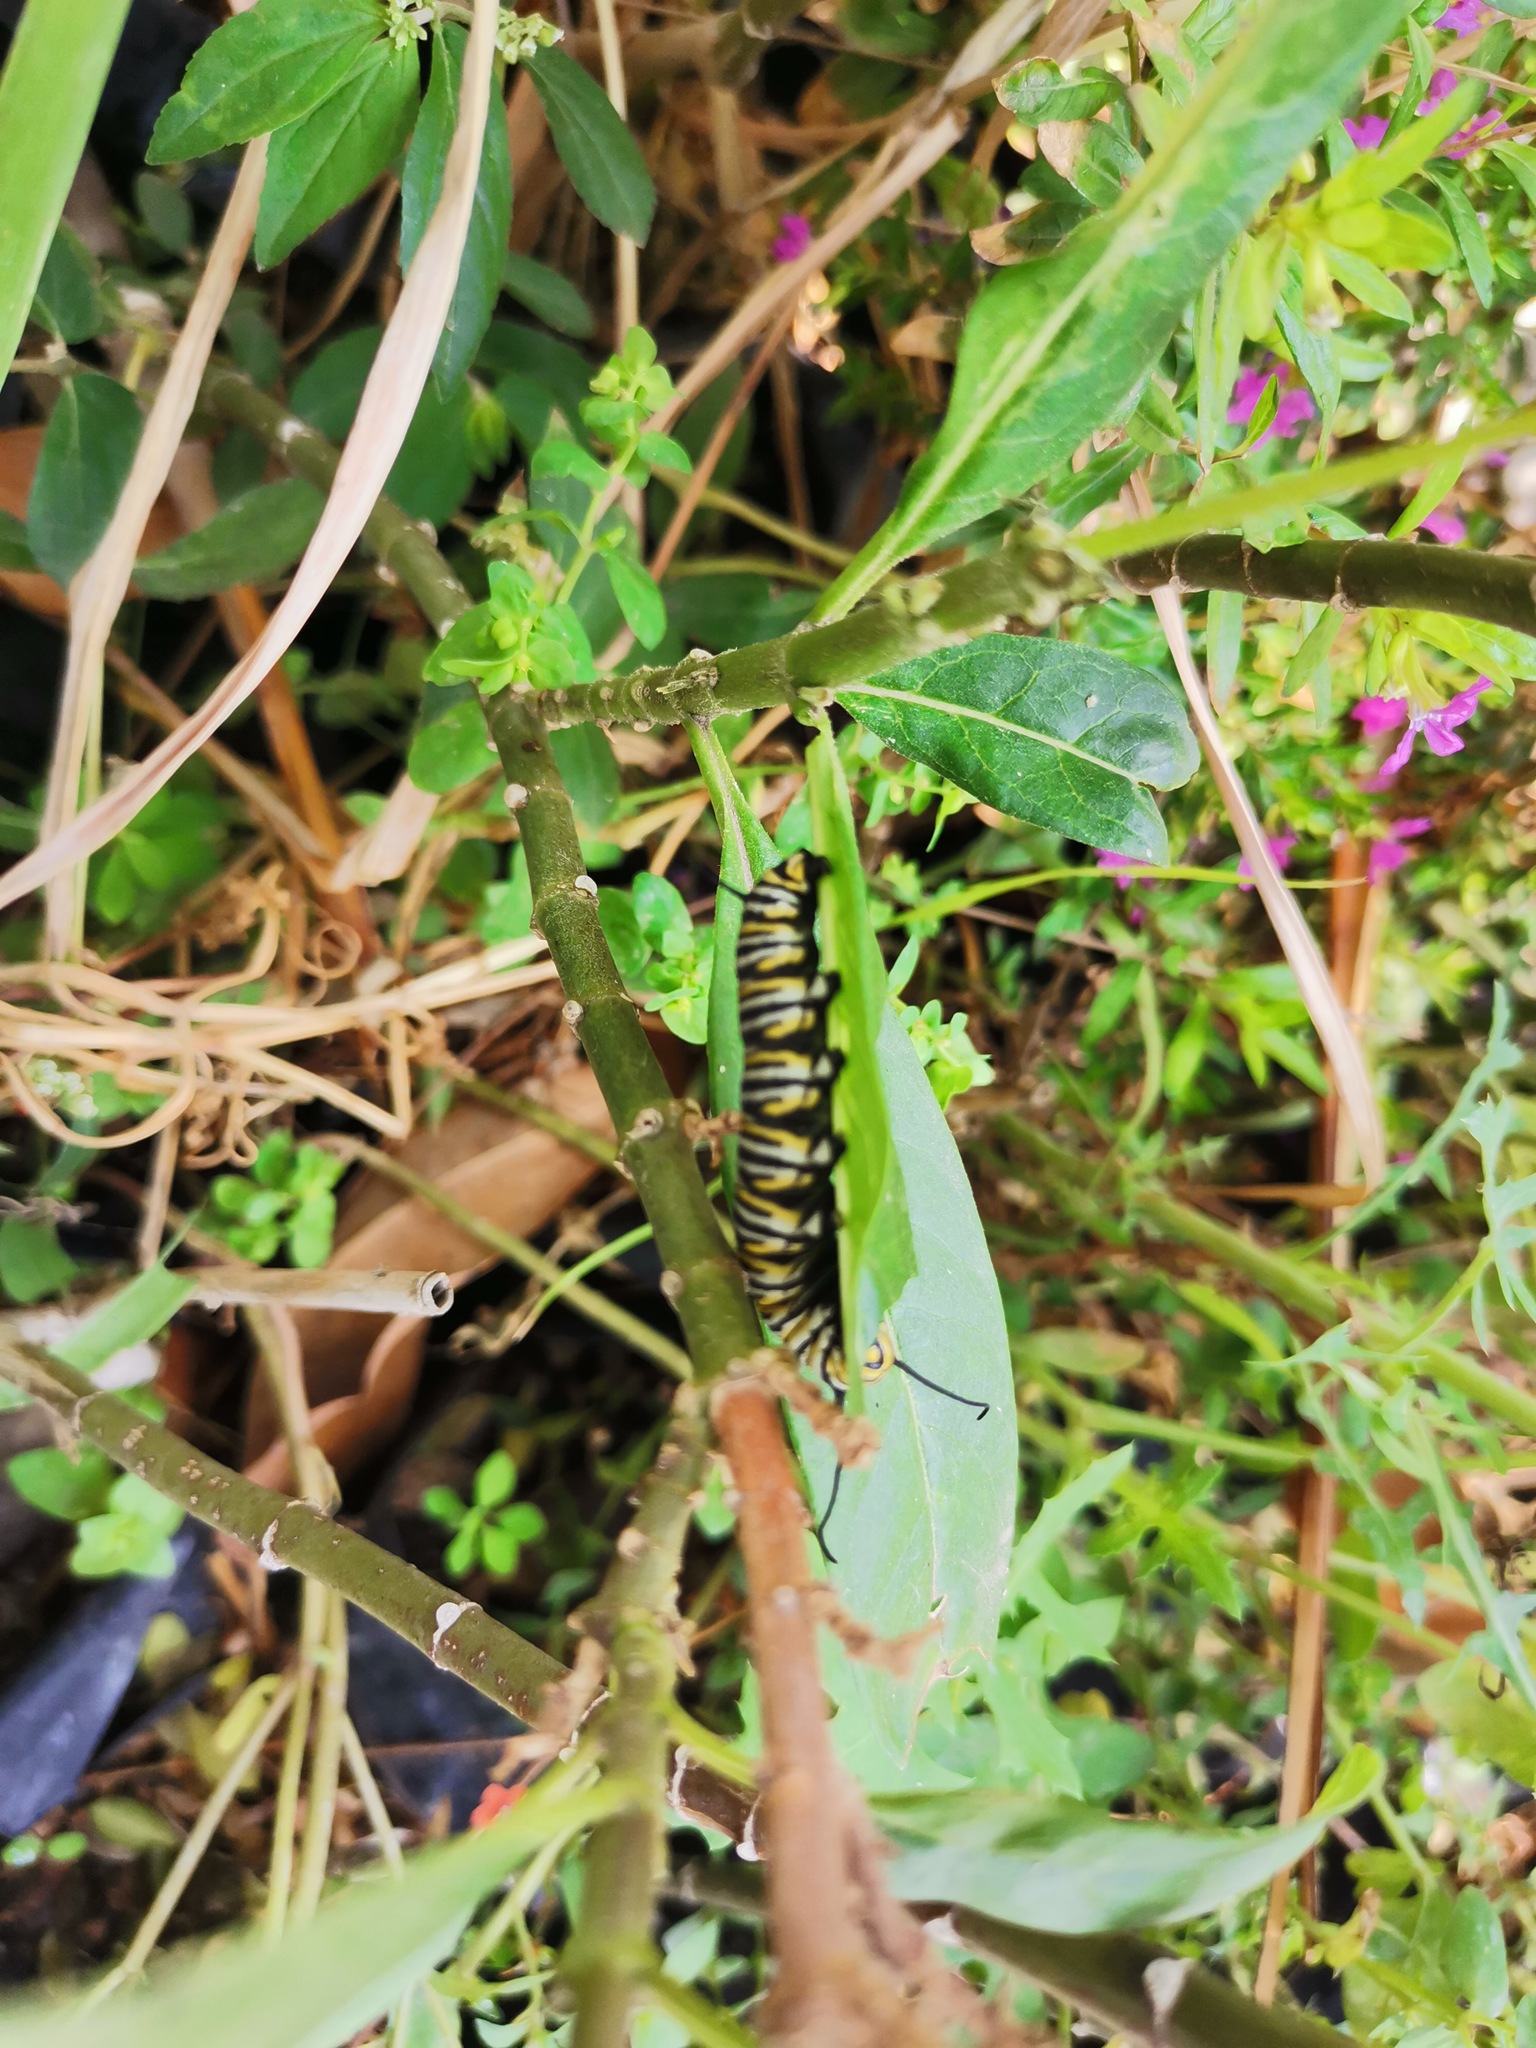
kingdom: Animalia
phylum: Arthropoda
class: Insecta
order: Lepidoptera
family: Nymphalidae
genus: Danaus
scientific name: Danaus plexippus
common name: Monarch
